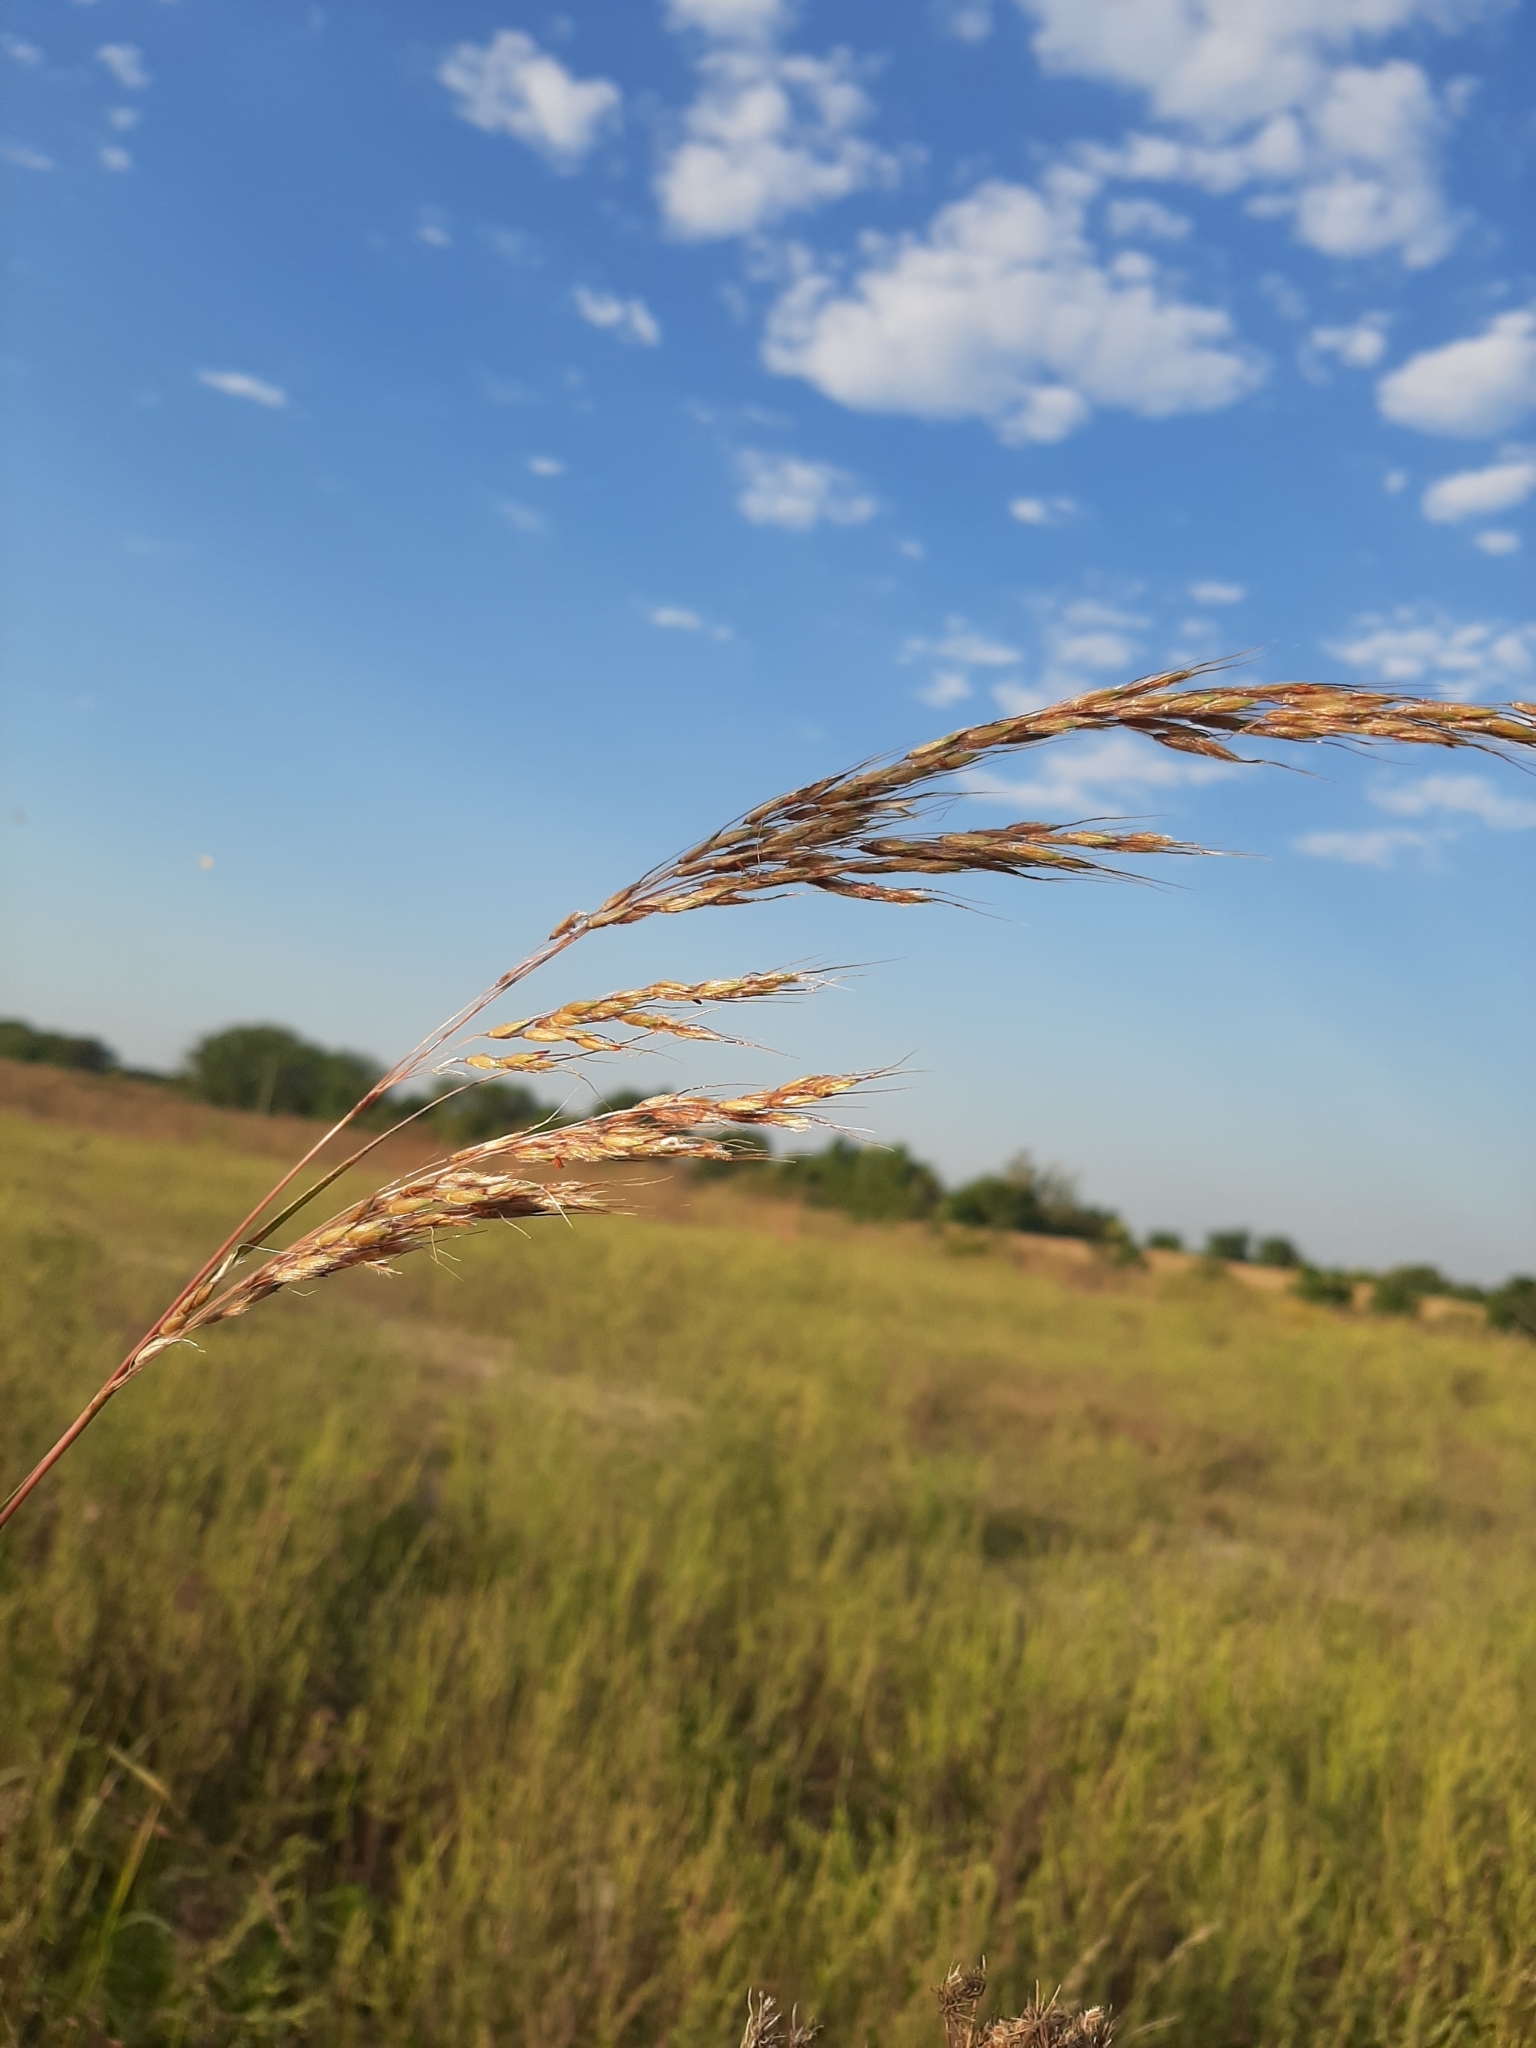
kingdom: Plantae
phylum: Tracheophyta
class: Liliopsida
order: Poales
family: Poaceae
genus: Sorghastrum
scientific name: Sorghastrum nutans
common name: Indian grass
